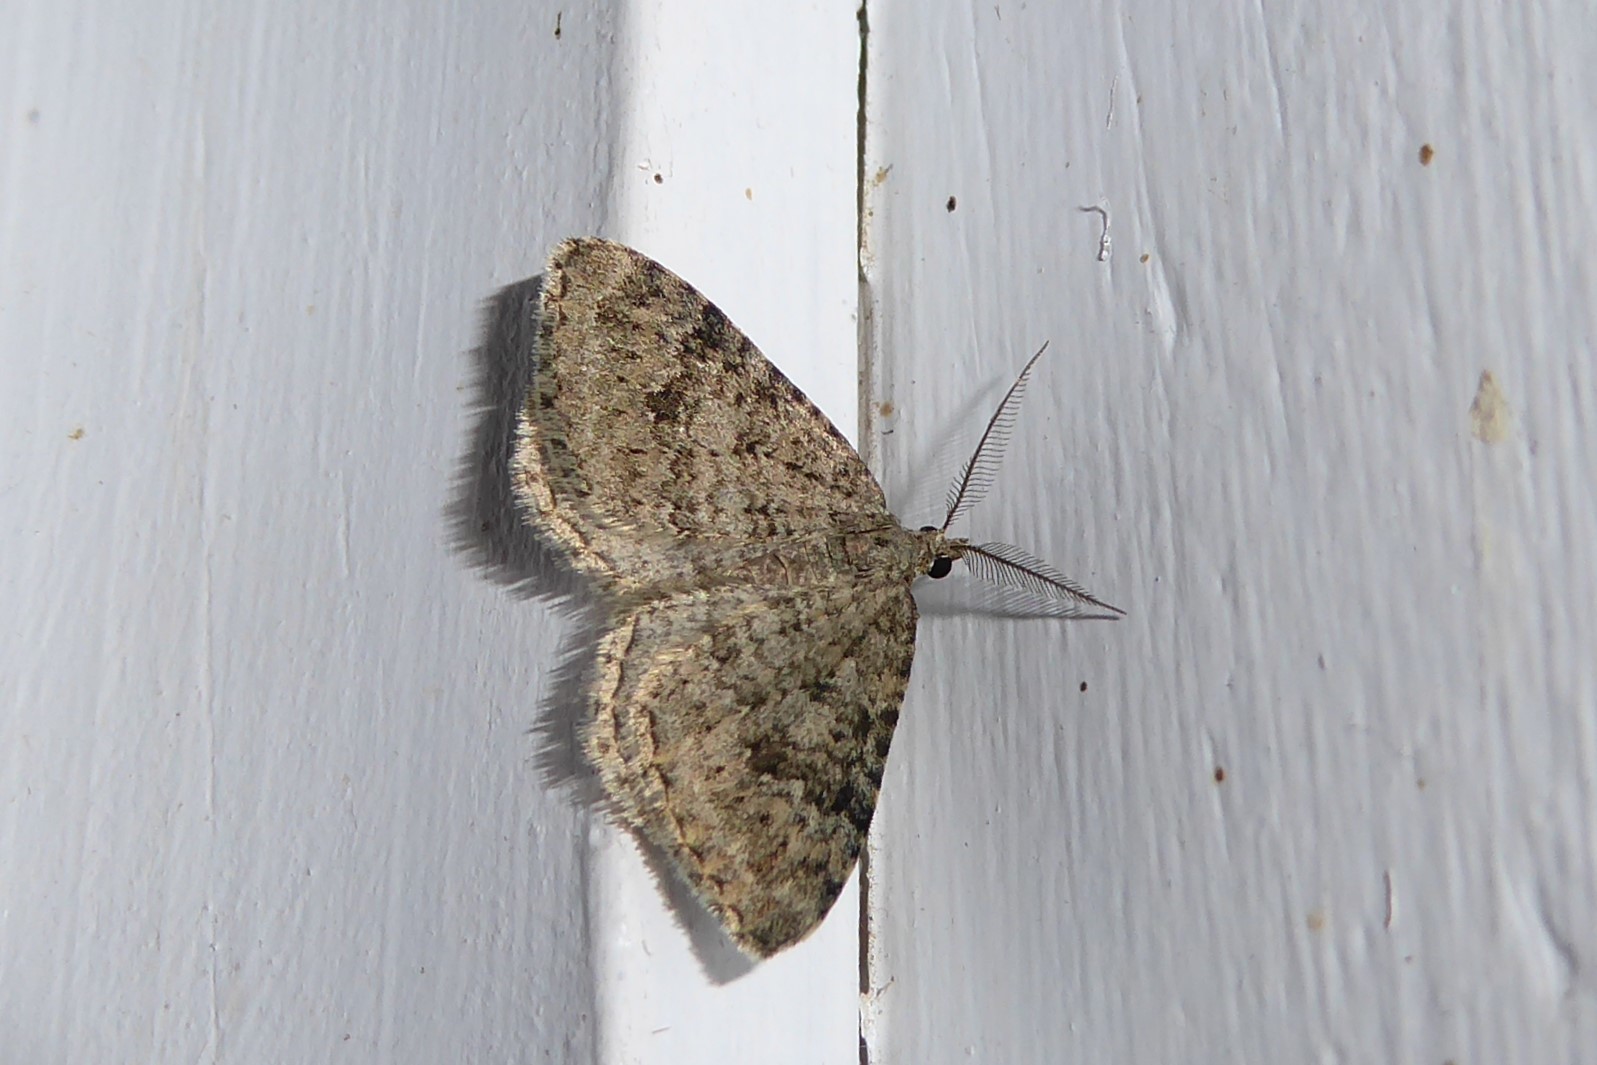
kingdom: Animalia
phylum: Arthropoda
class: Insecta
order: Lepidoptera
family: Geometridae
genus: Helastia
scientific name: Helastia corcularia
